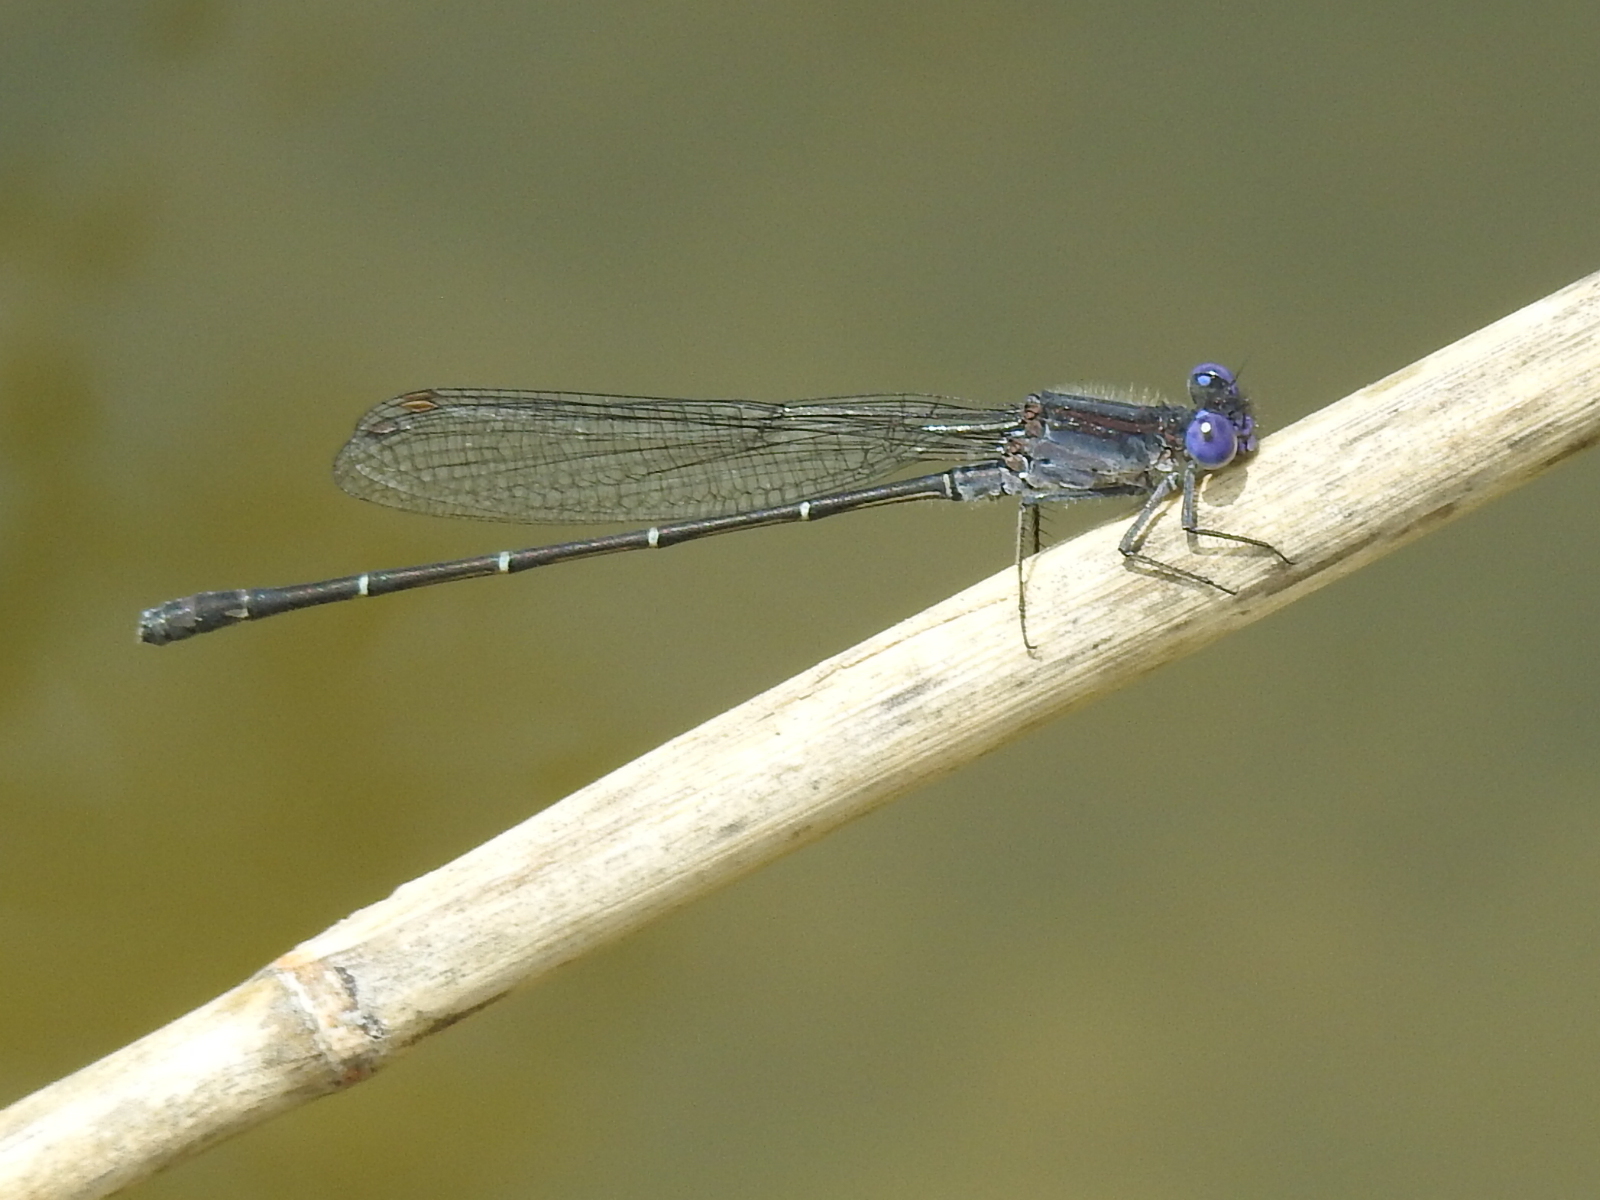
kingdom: Animalia
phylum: Arthropoda
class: Insecta
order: Odonata
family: Coenagrionidae
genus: Argia
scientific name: Argia translata
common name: Dusky dancer
